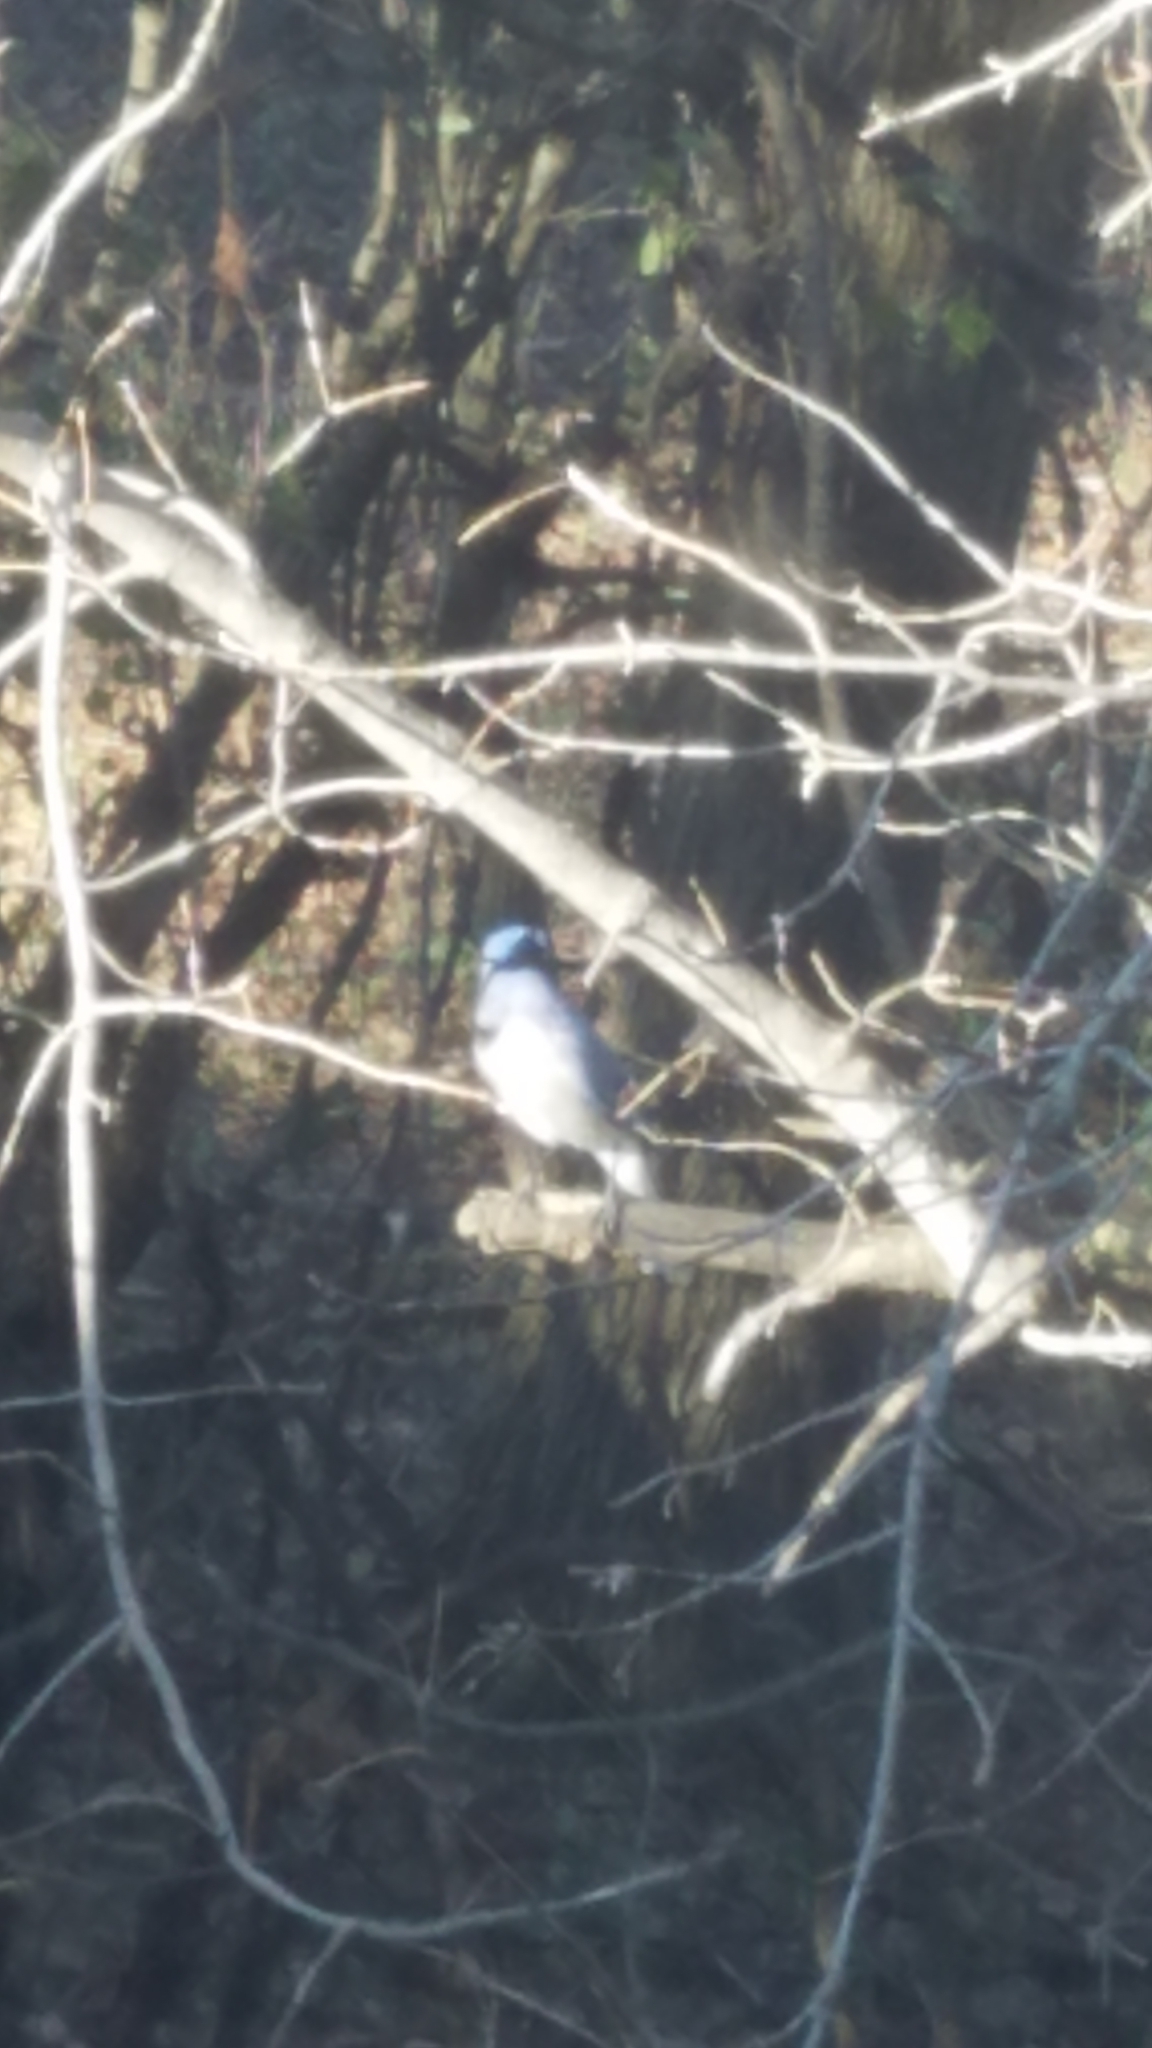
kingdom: Animalia
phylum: Chordata
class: Aves
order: Passeriformes
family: Corvidae
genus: Cyanocitta
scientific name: Cyanocitta cristata
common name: Blue jay
